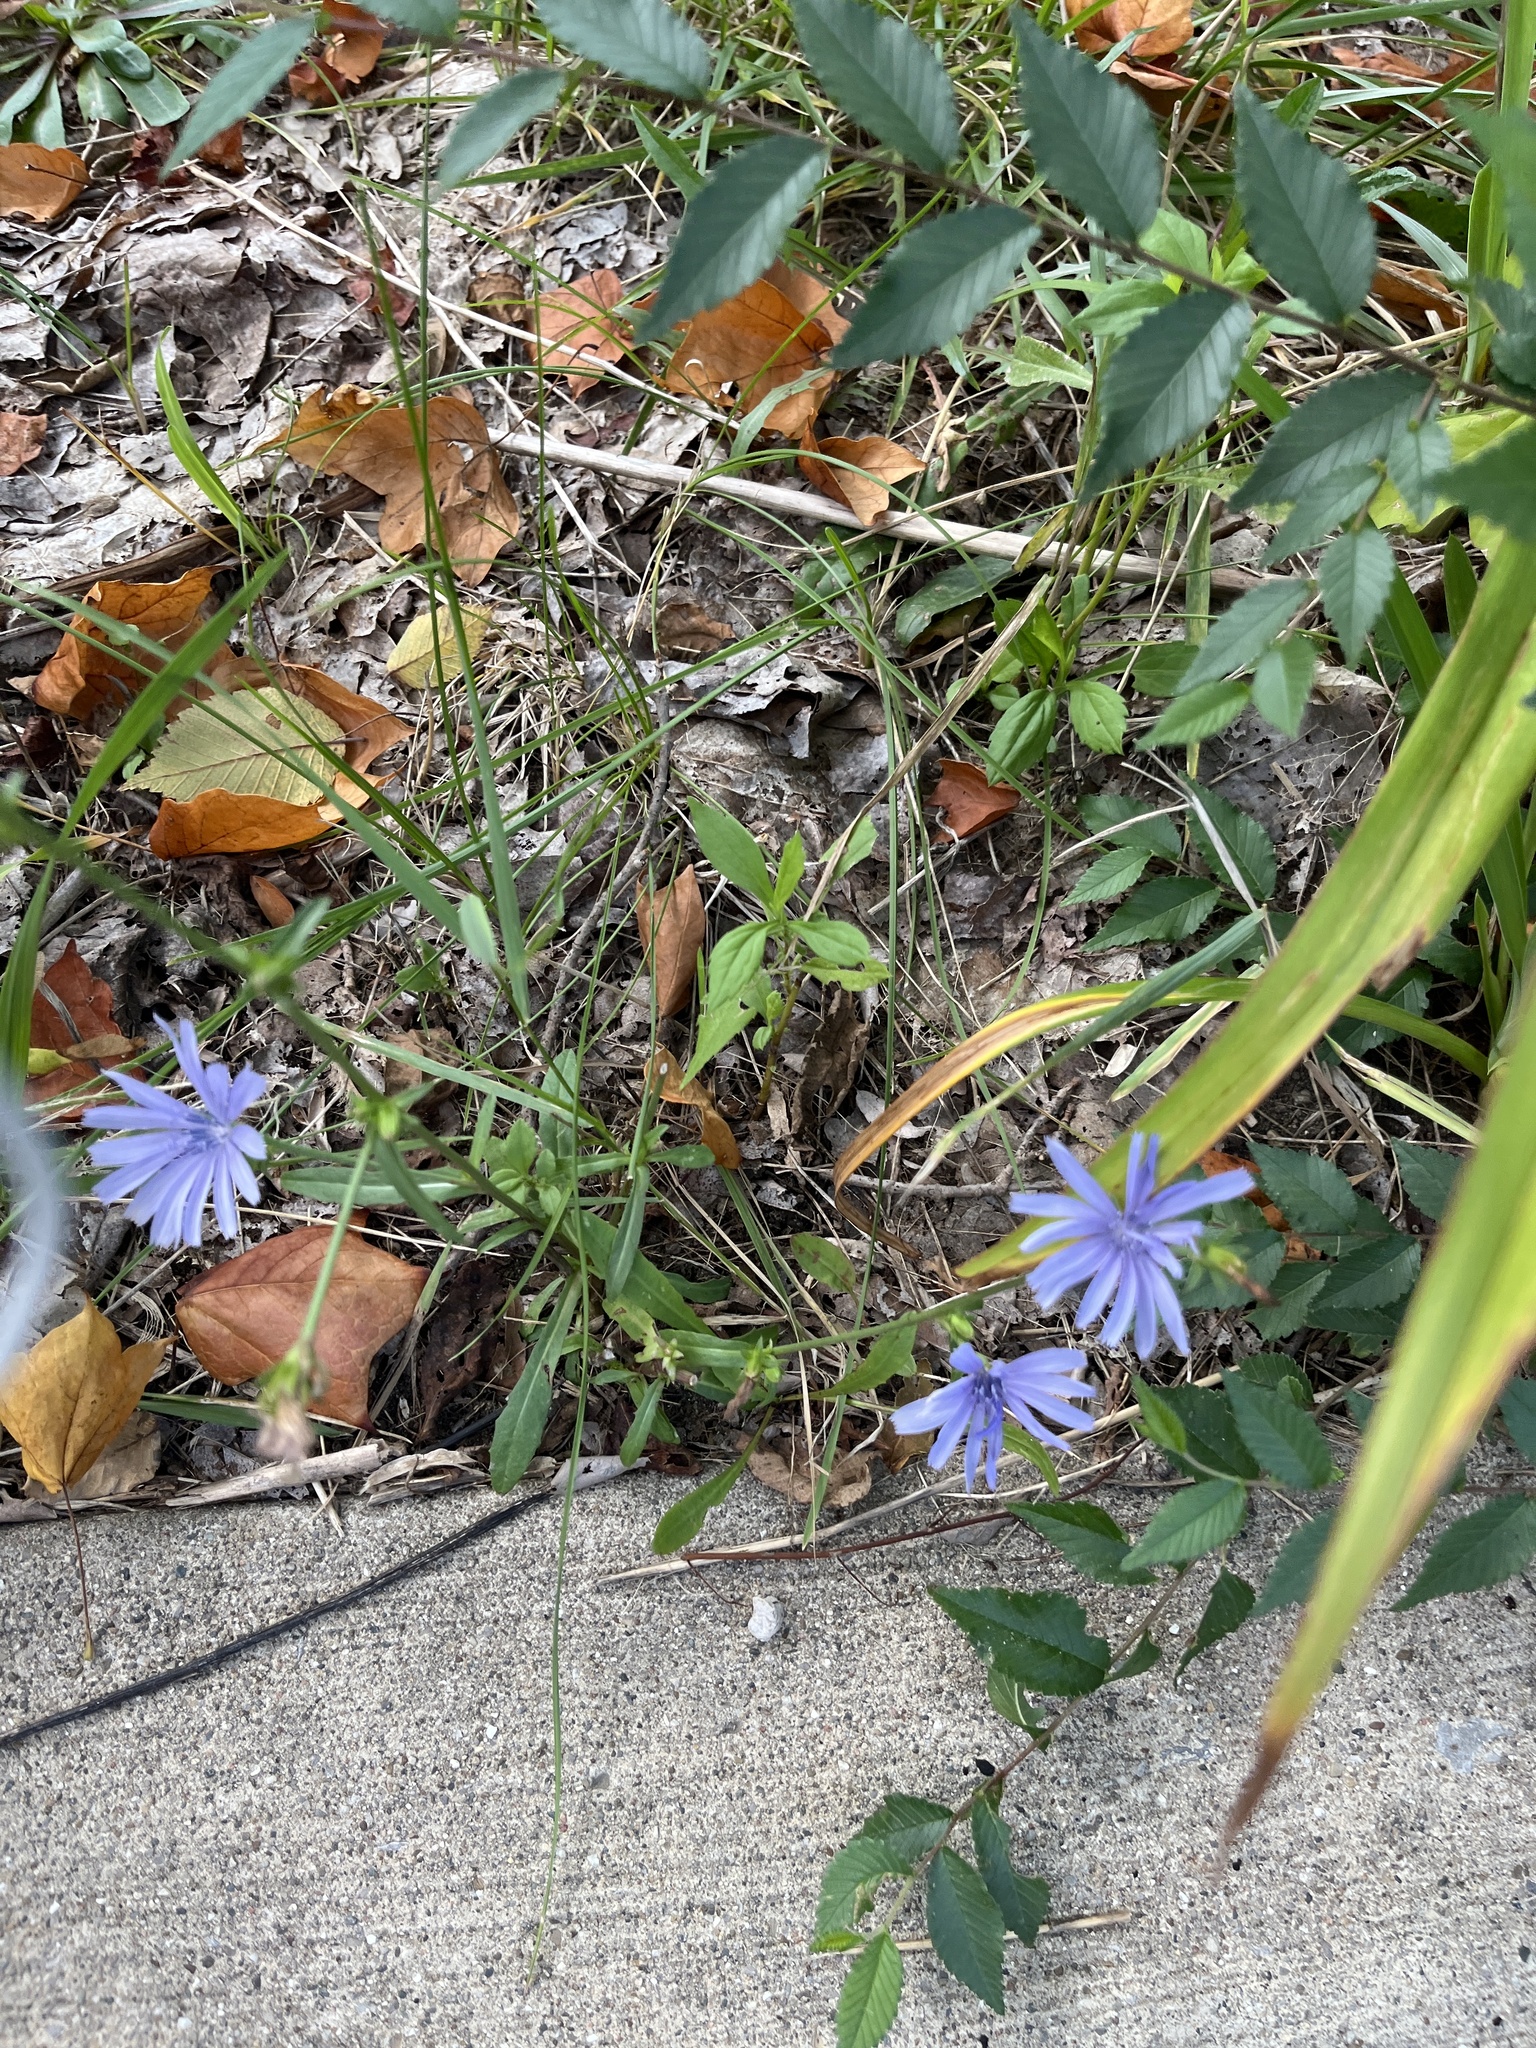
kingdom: Plantae
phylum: Tracheophyta
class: Magnoliopsida
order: Asterales
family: Asteraceae
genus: Cichorium
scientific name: Cichorium intybus
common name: Chicory
